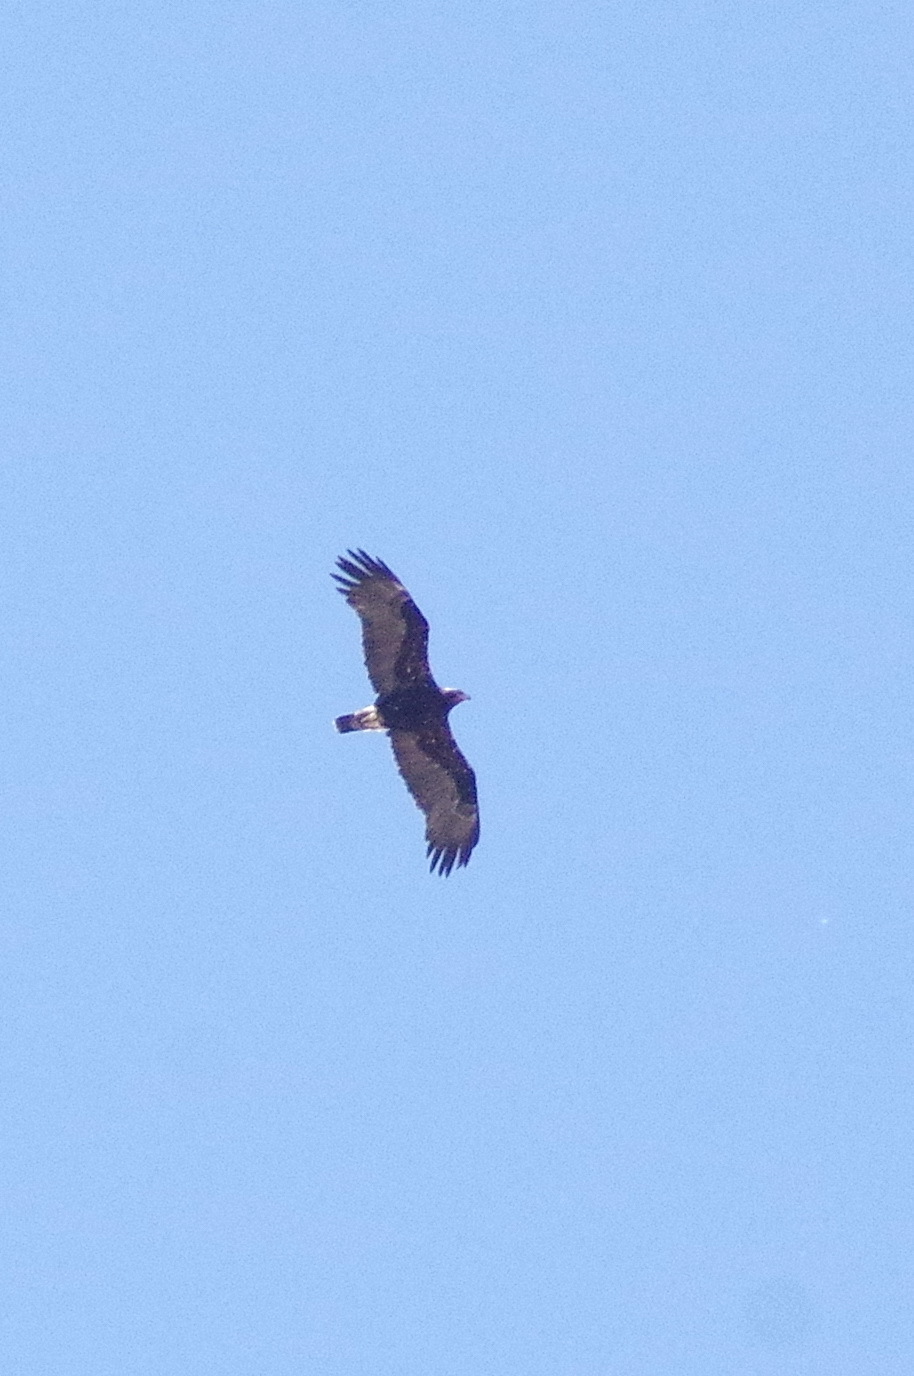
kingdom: Animalia
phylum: Chordata
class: Aves
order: Accipitriformes
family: Accipitridae
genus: Aquila
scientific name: Aquila adalberti
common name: Spanish imperial eagle
